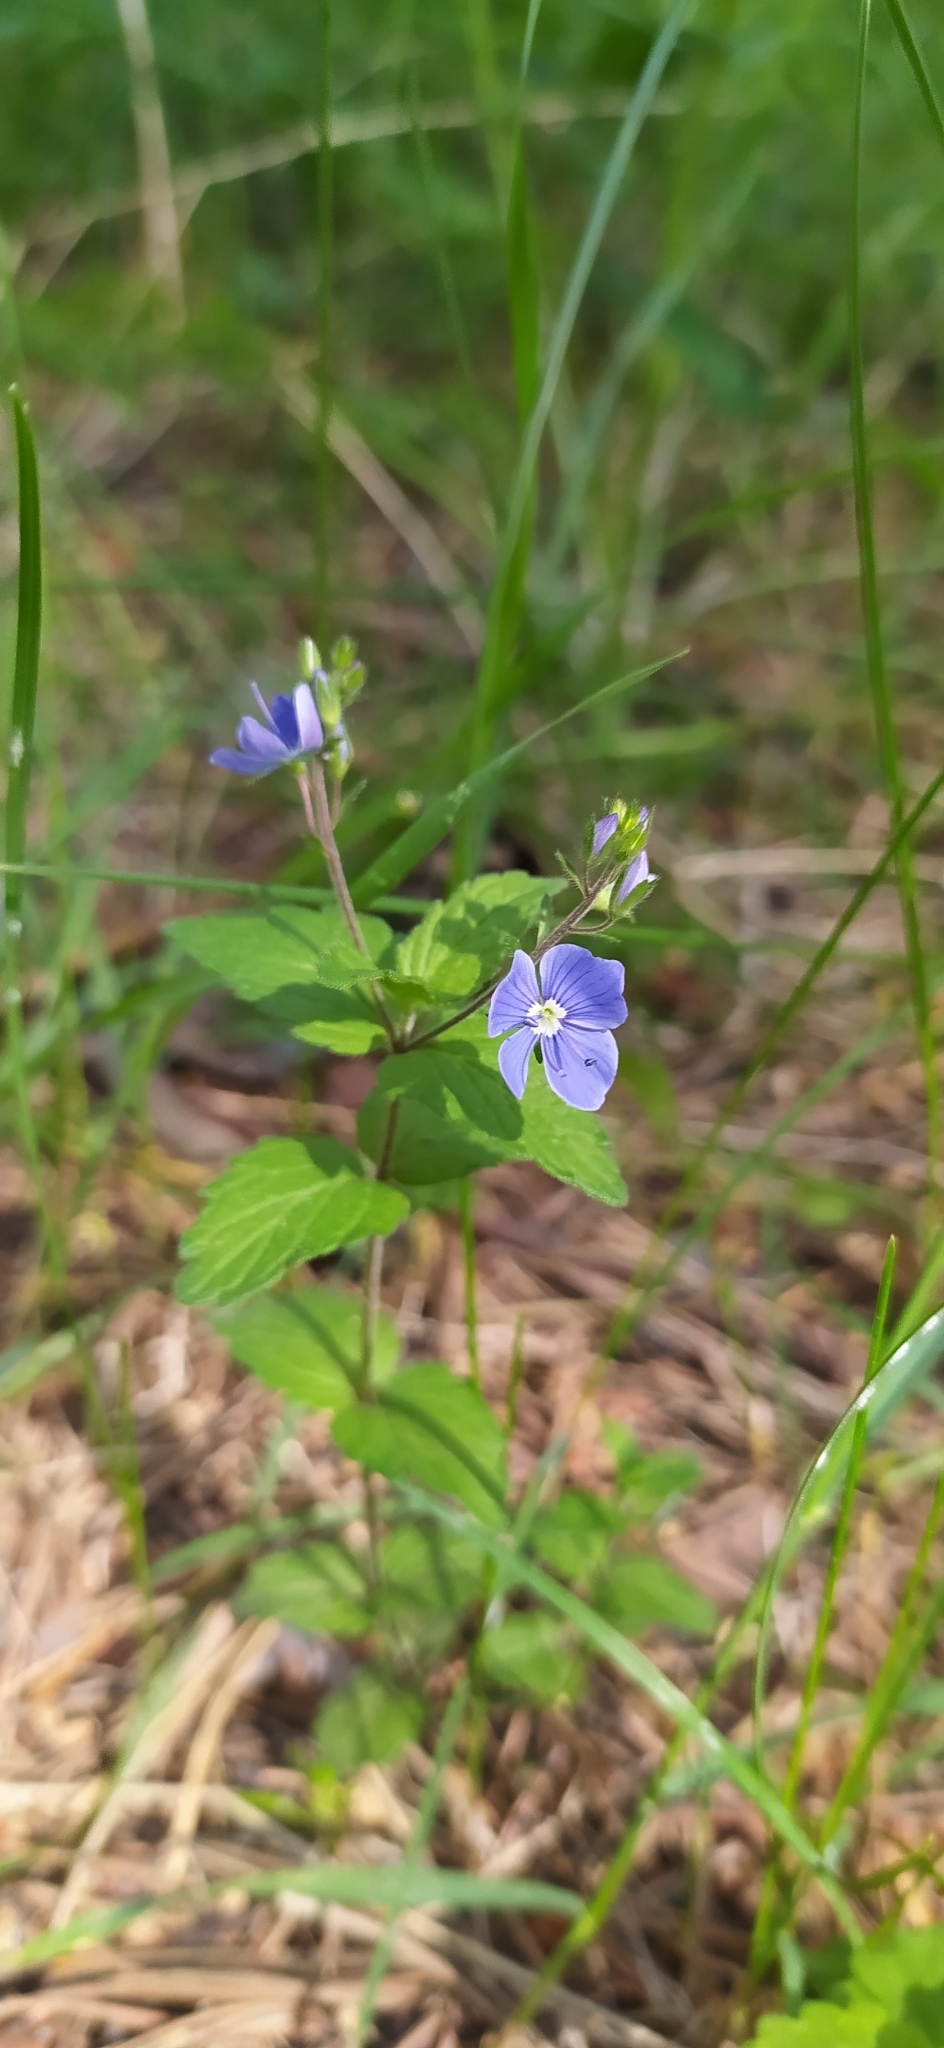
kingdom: Plantae
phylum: Tracheophyta
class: Magnoliopsida
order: Lamiales
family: Plantaginaceae
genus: Veronica
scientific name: Veronica chamaedrys
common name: Germander speedwell
